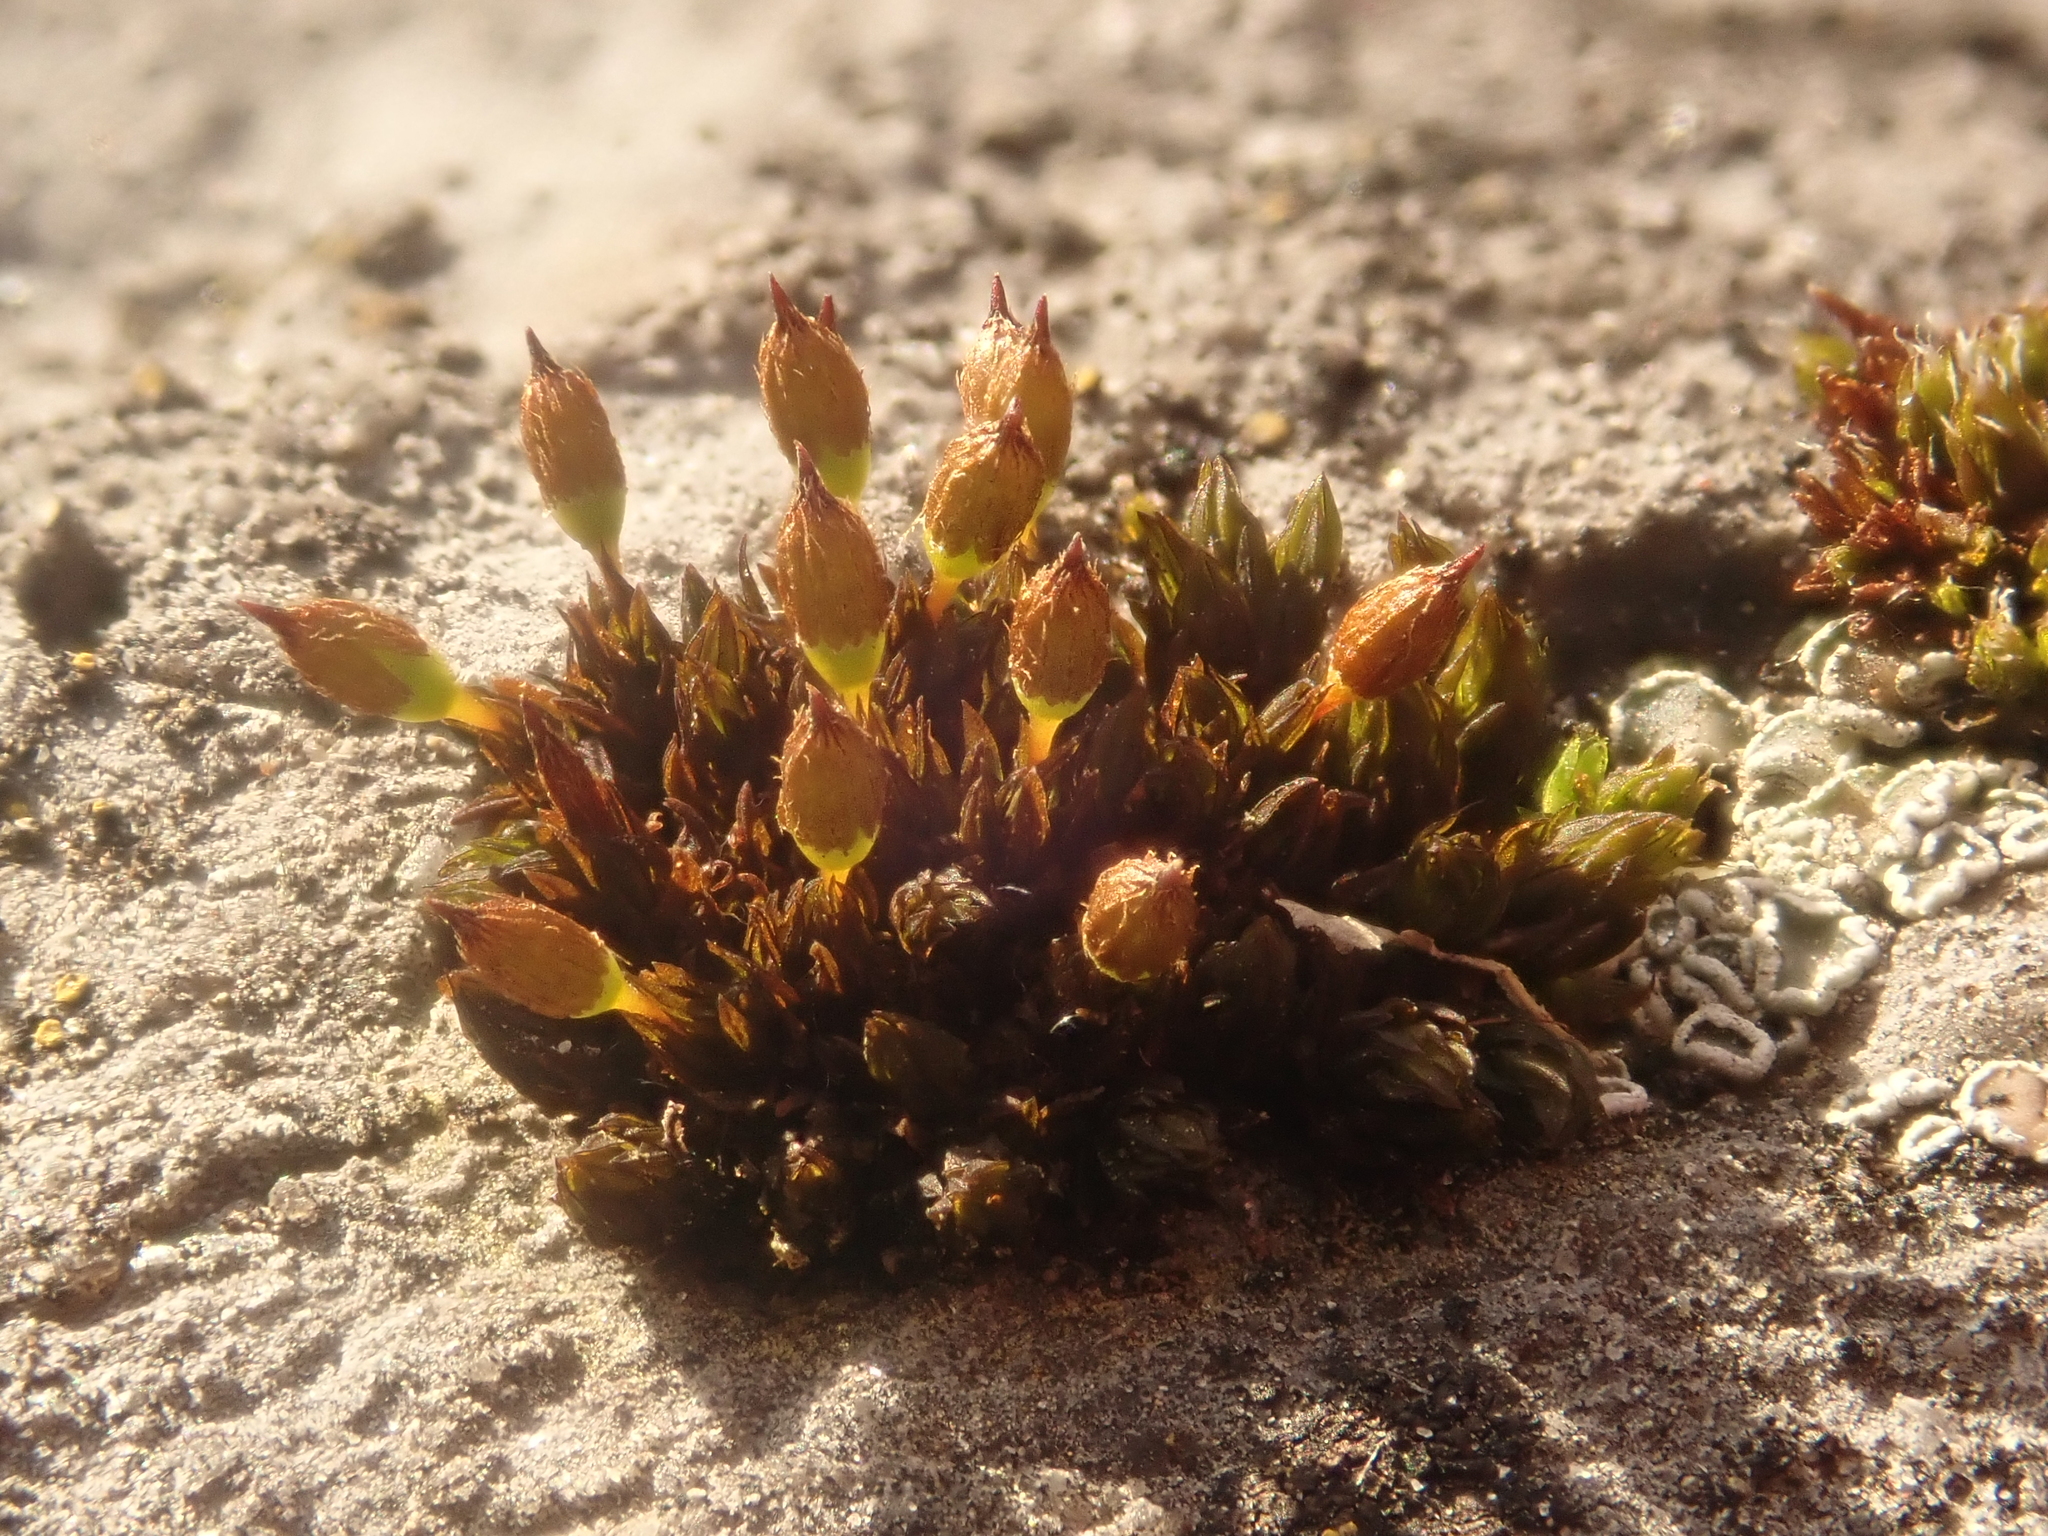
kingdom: Plantae
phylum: Bryophyta
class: Bryopsida
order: Orthotrichales
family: Orthotrichaceae
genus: Orthotrichum
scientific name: Orthotrichum anomalum
